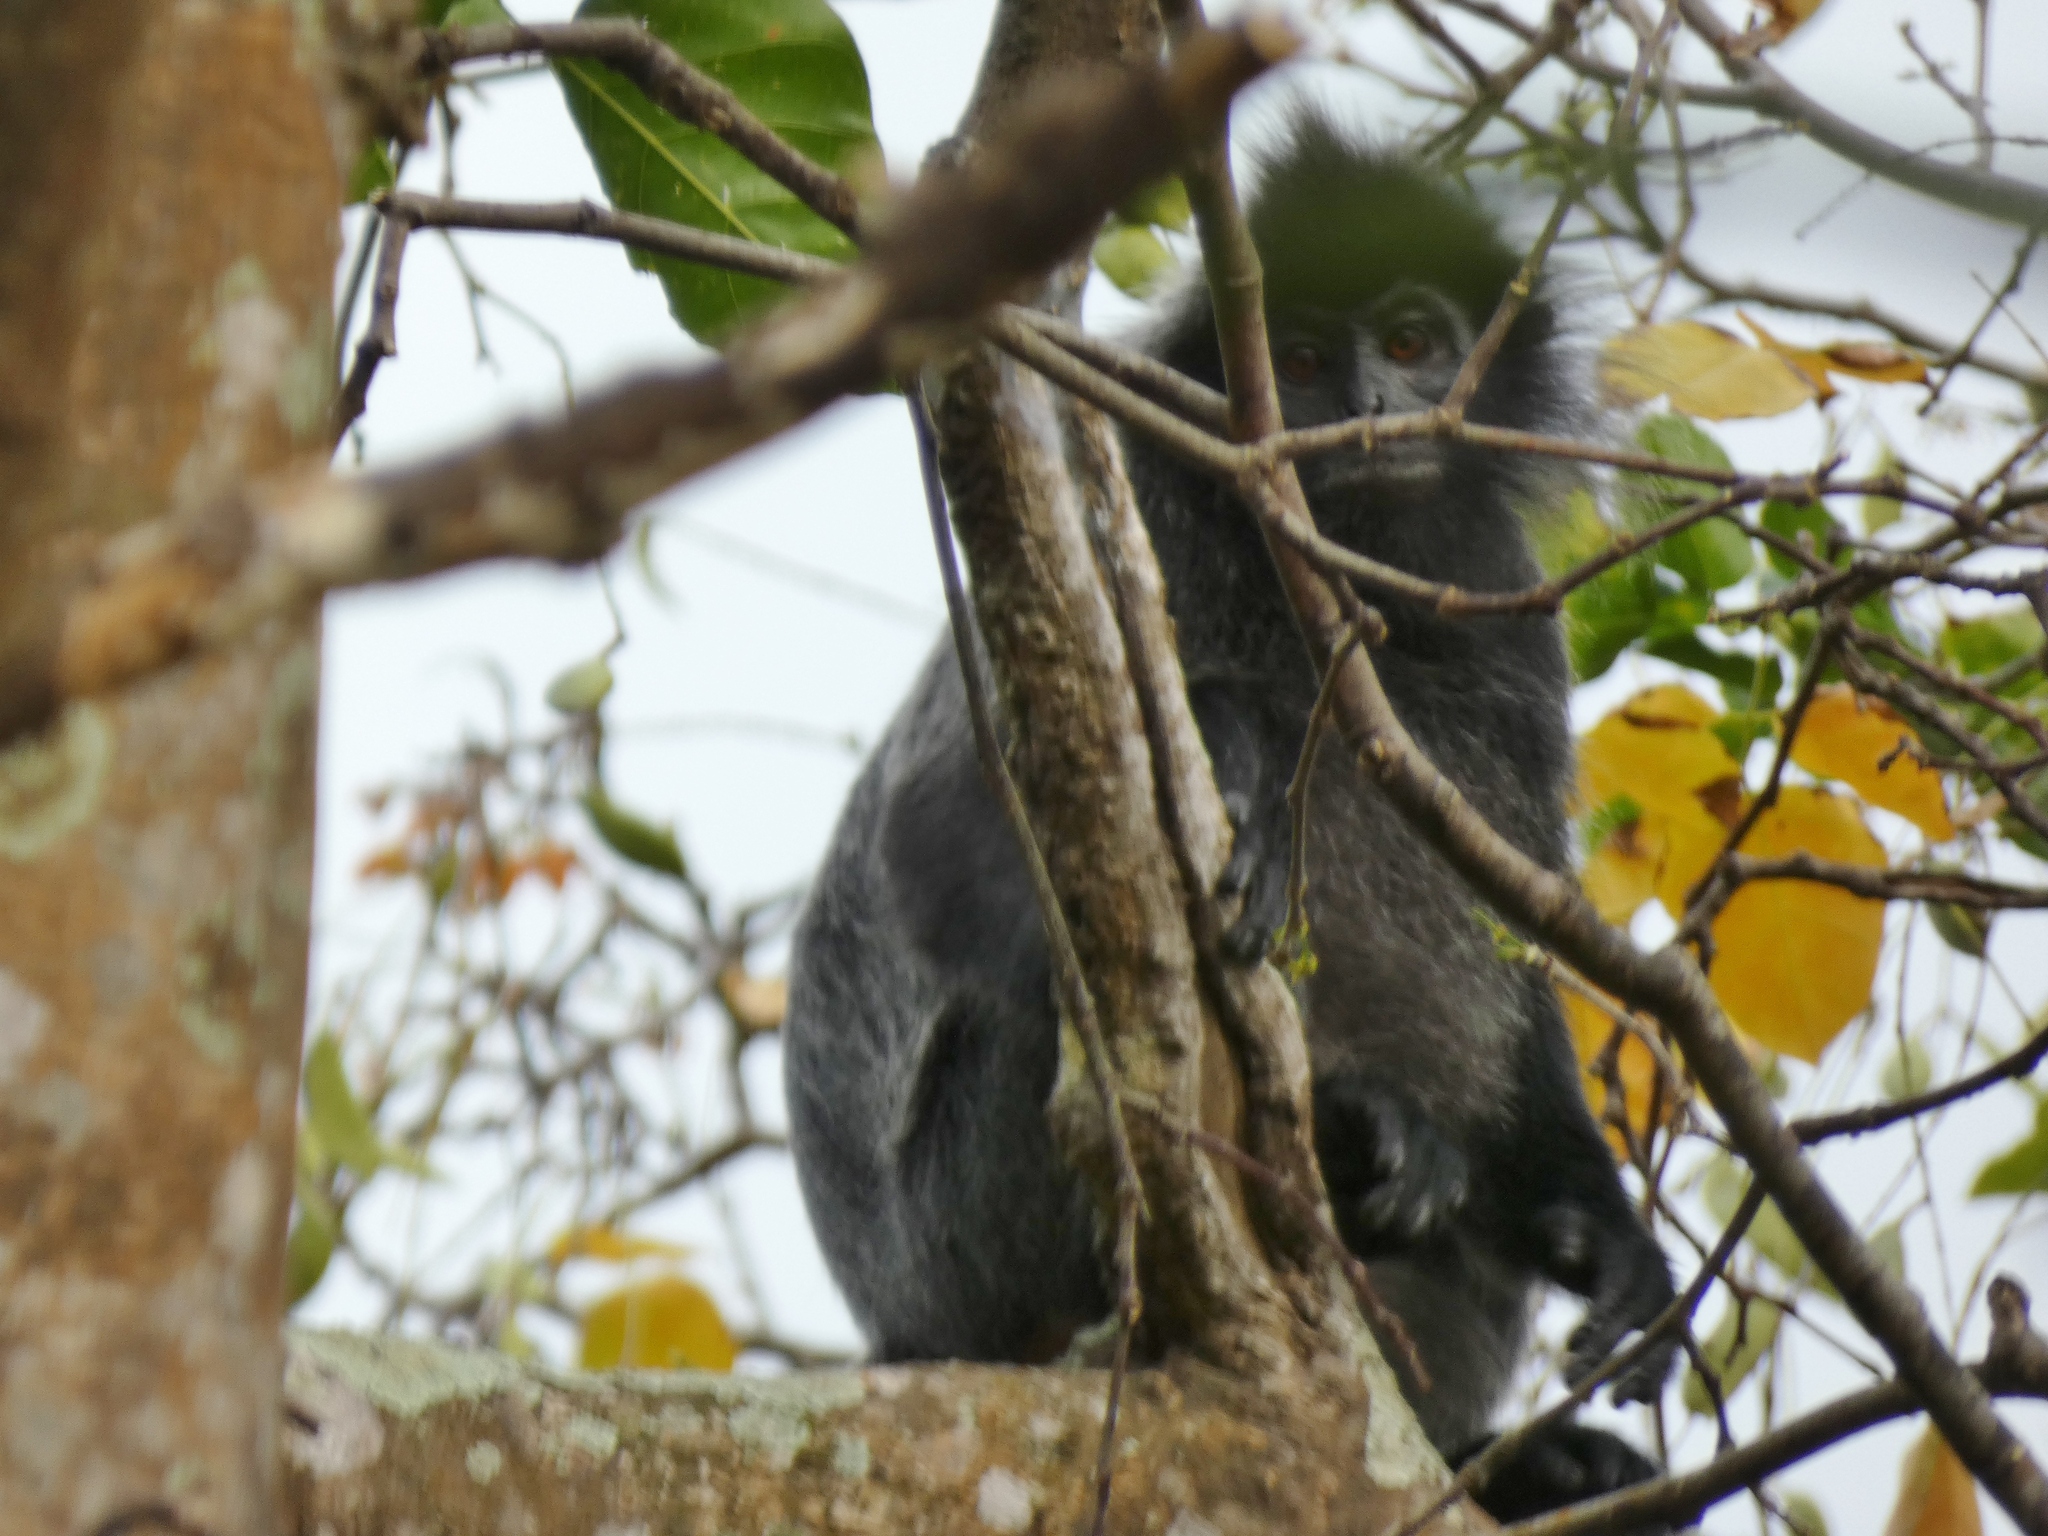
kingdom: Animalia
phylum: Chordata
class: Mammalia
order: Primates
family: Cercopithecidae
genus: Trachypithecus
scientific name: Trachypithecus cristatus
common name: Silvery lutung
